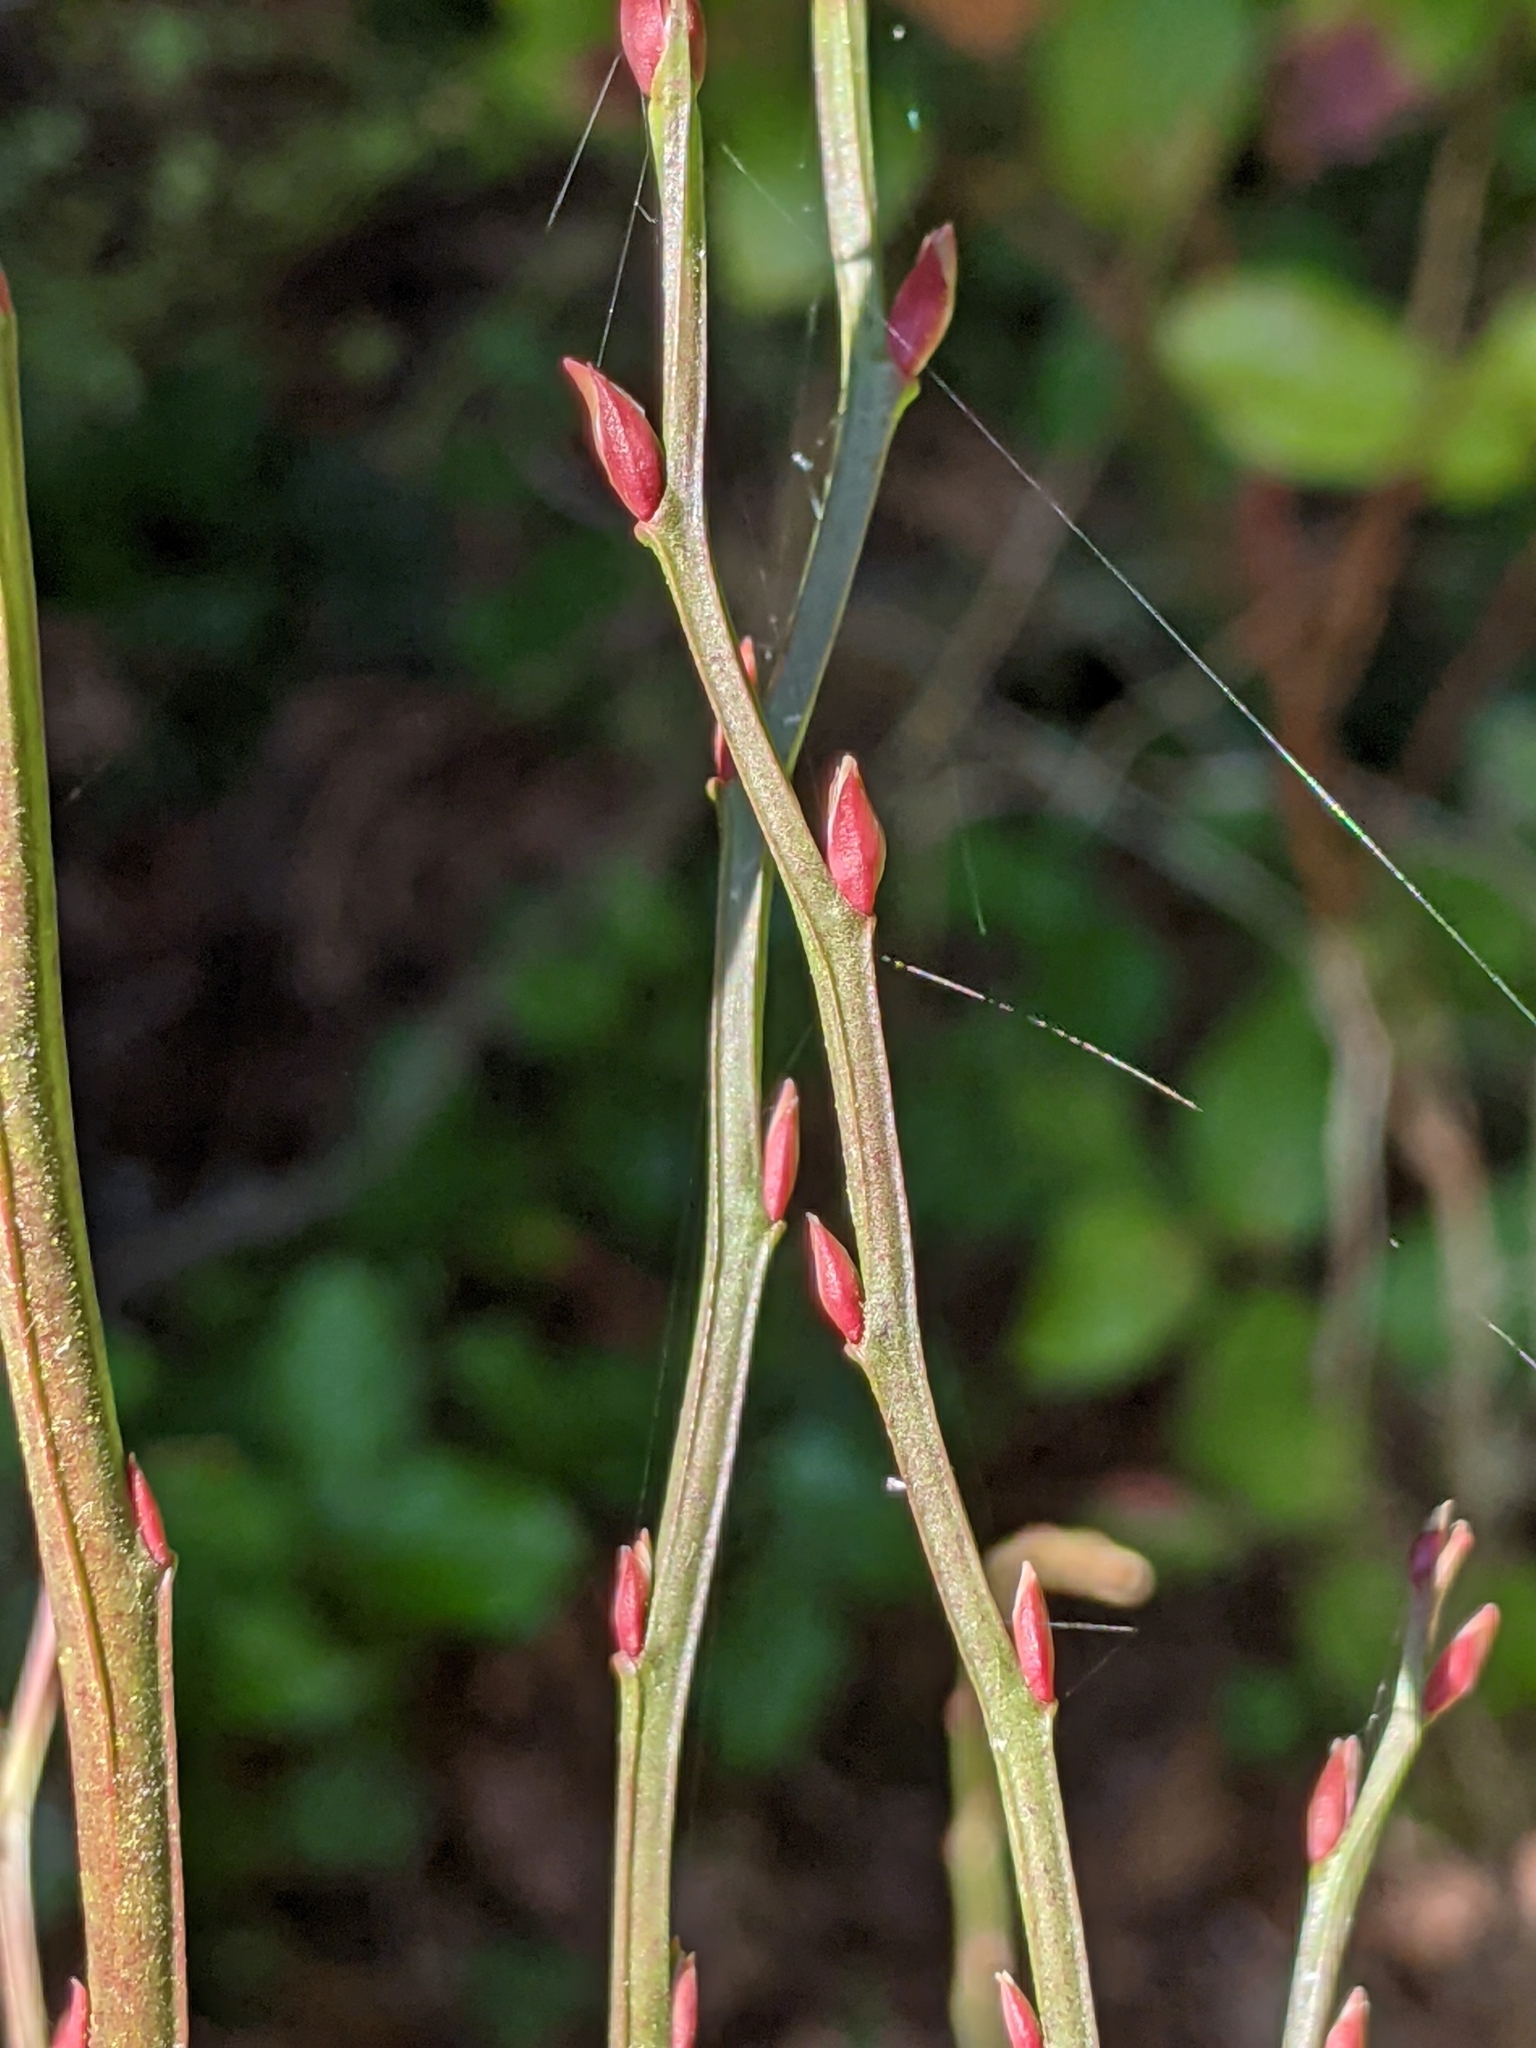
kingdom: Plantae
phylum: Tracheophyta
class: Magnoliopsida
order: Ericales
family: Ericaceae
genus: Vaccinium
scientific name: Vaccinium parvifolium
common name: Red-huckleberry
